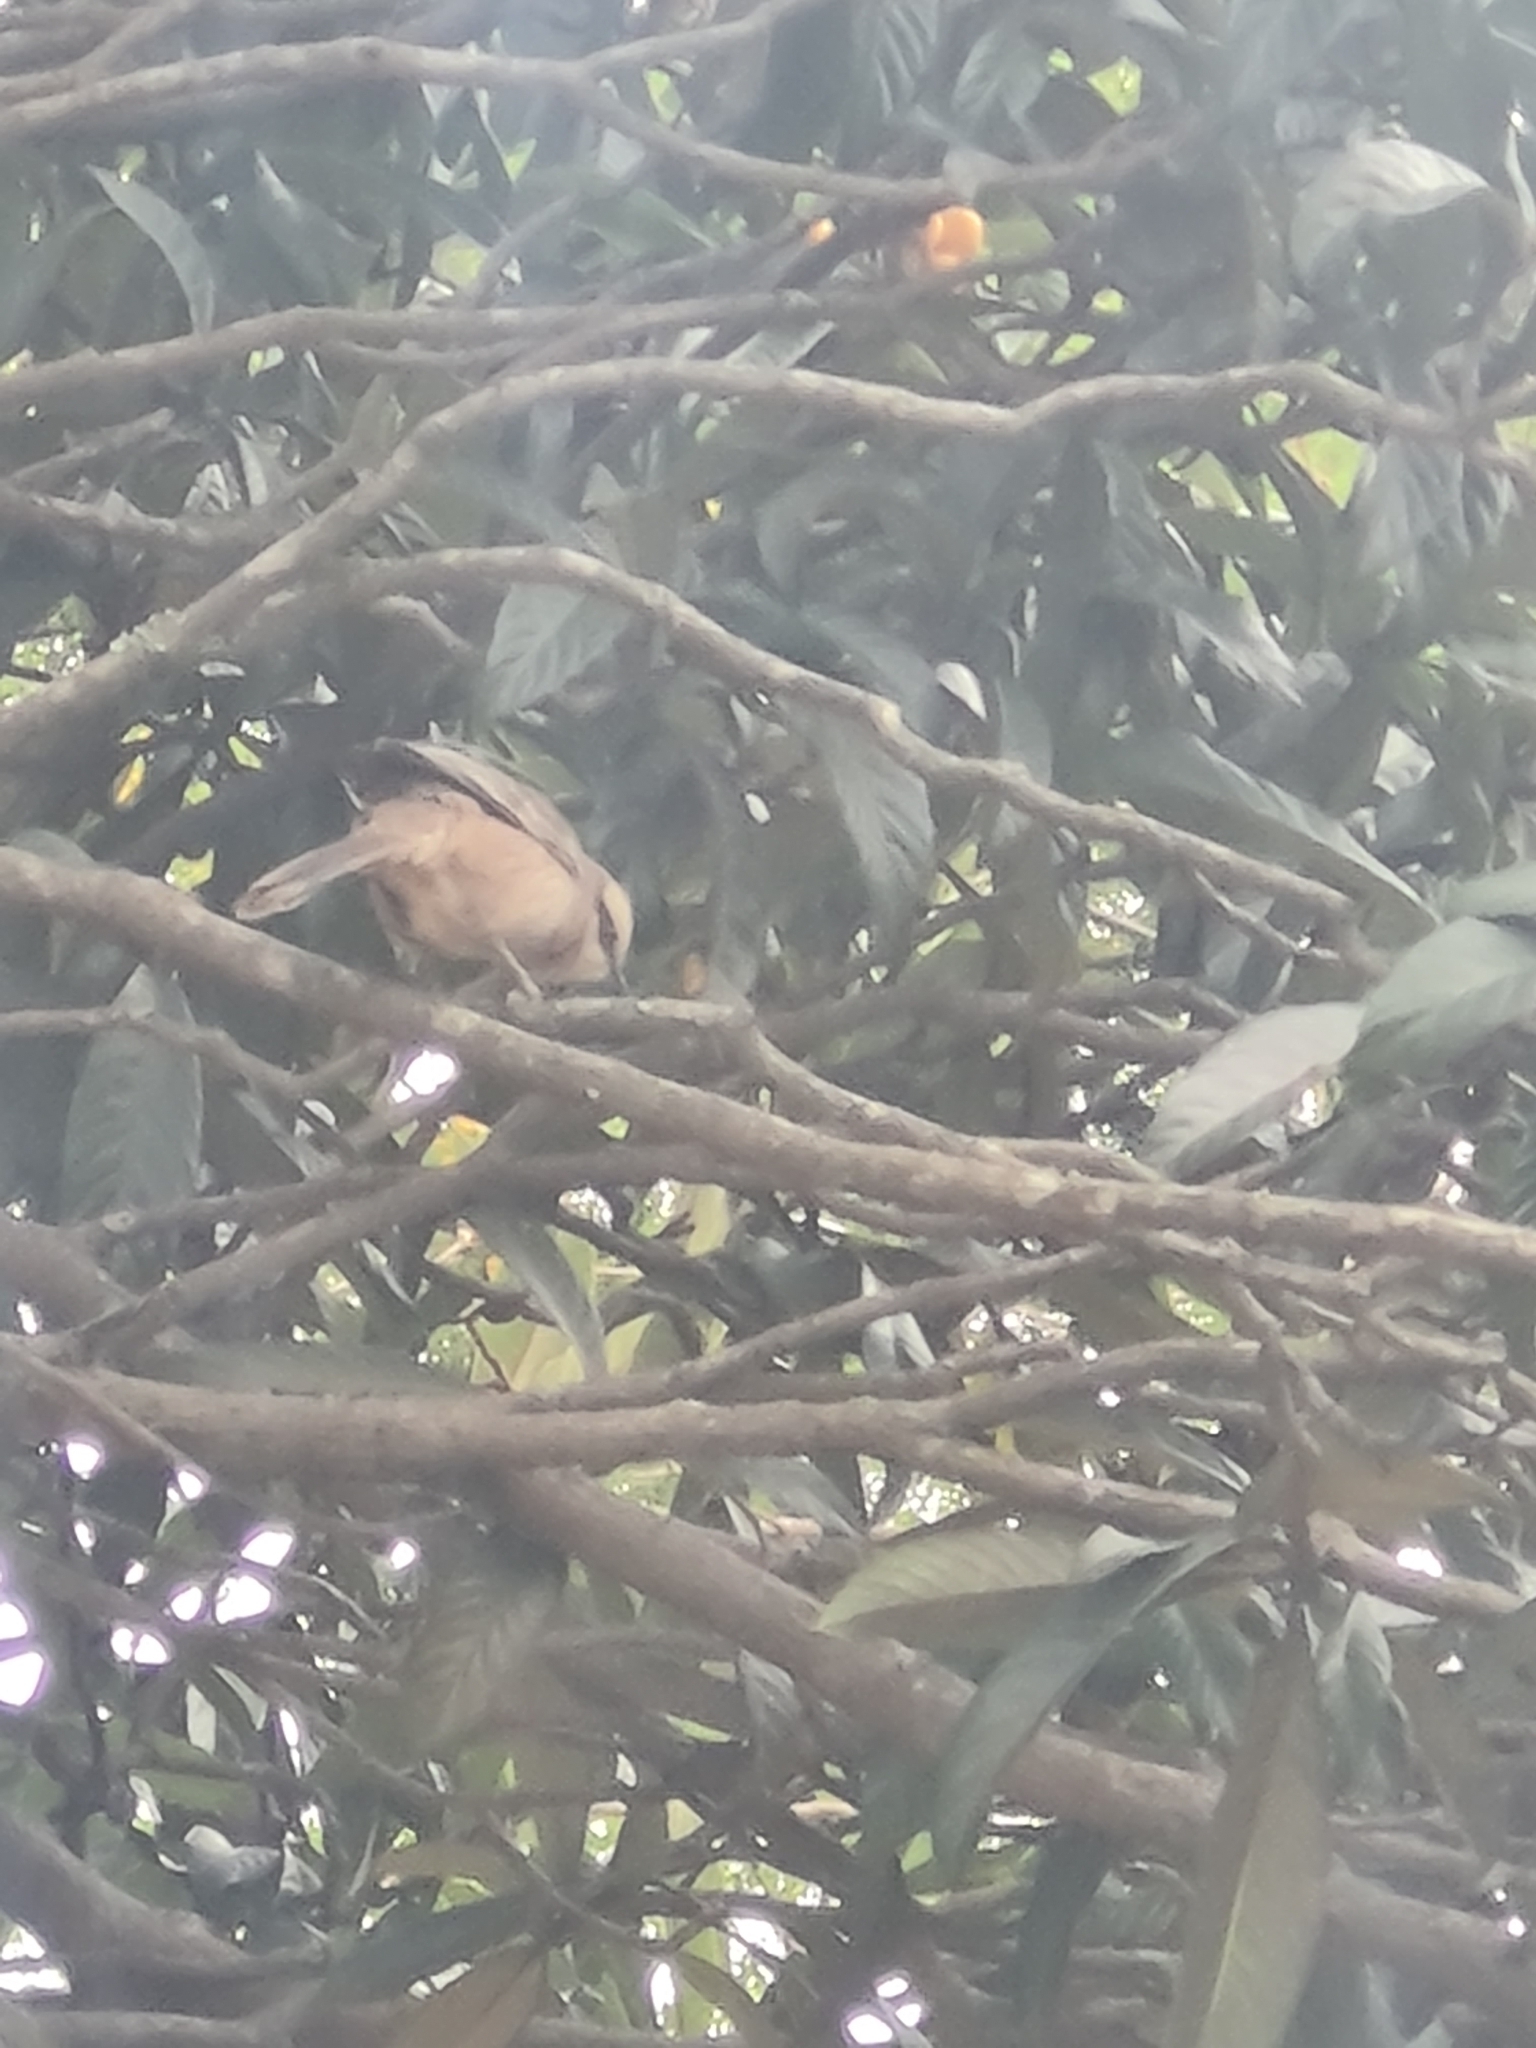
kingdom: Animalia
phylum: Chordata
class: Aves
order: Passeriformes
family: Mimidae
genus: Mimus
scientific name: Mimus saturninus
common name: Chalk-browed mockingbird
